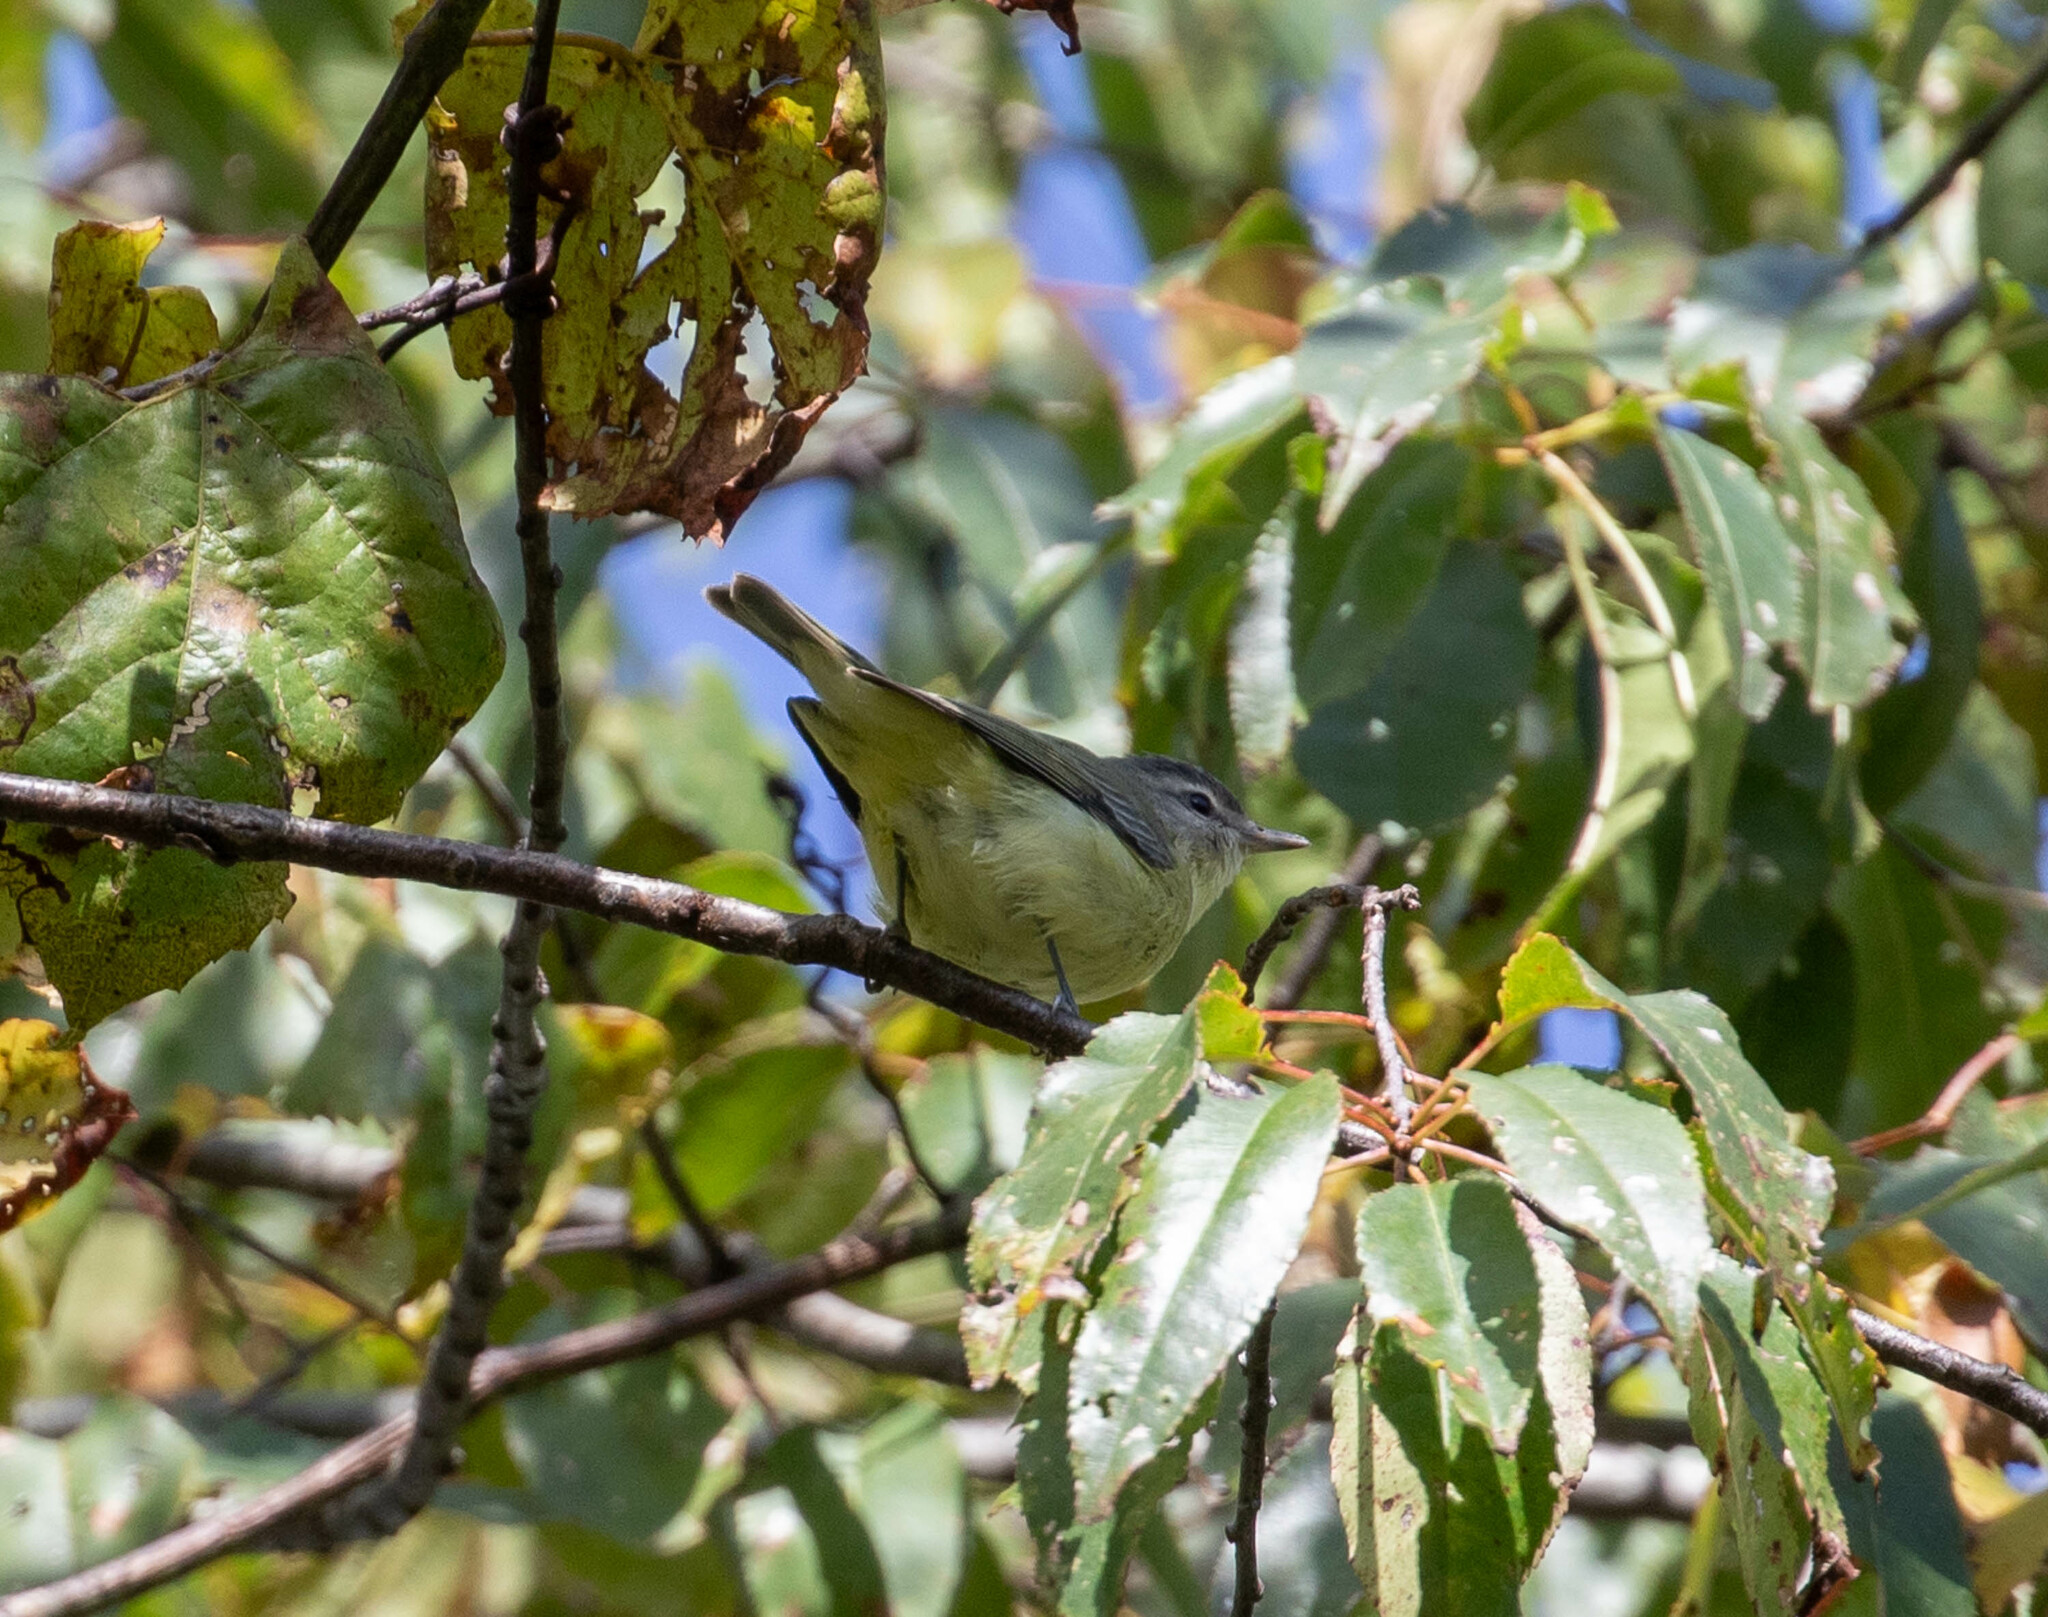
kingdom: Animalia
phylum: Chordata
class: Aves
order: Passeriformes
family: Vireonidae
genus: Vireo
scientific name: Vireo philadelphicus
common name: Philadelphia vireo
